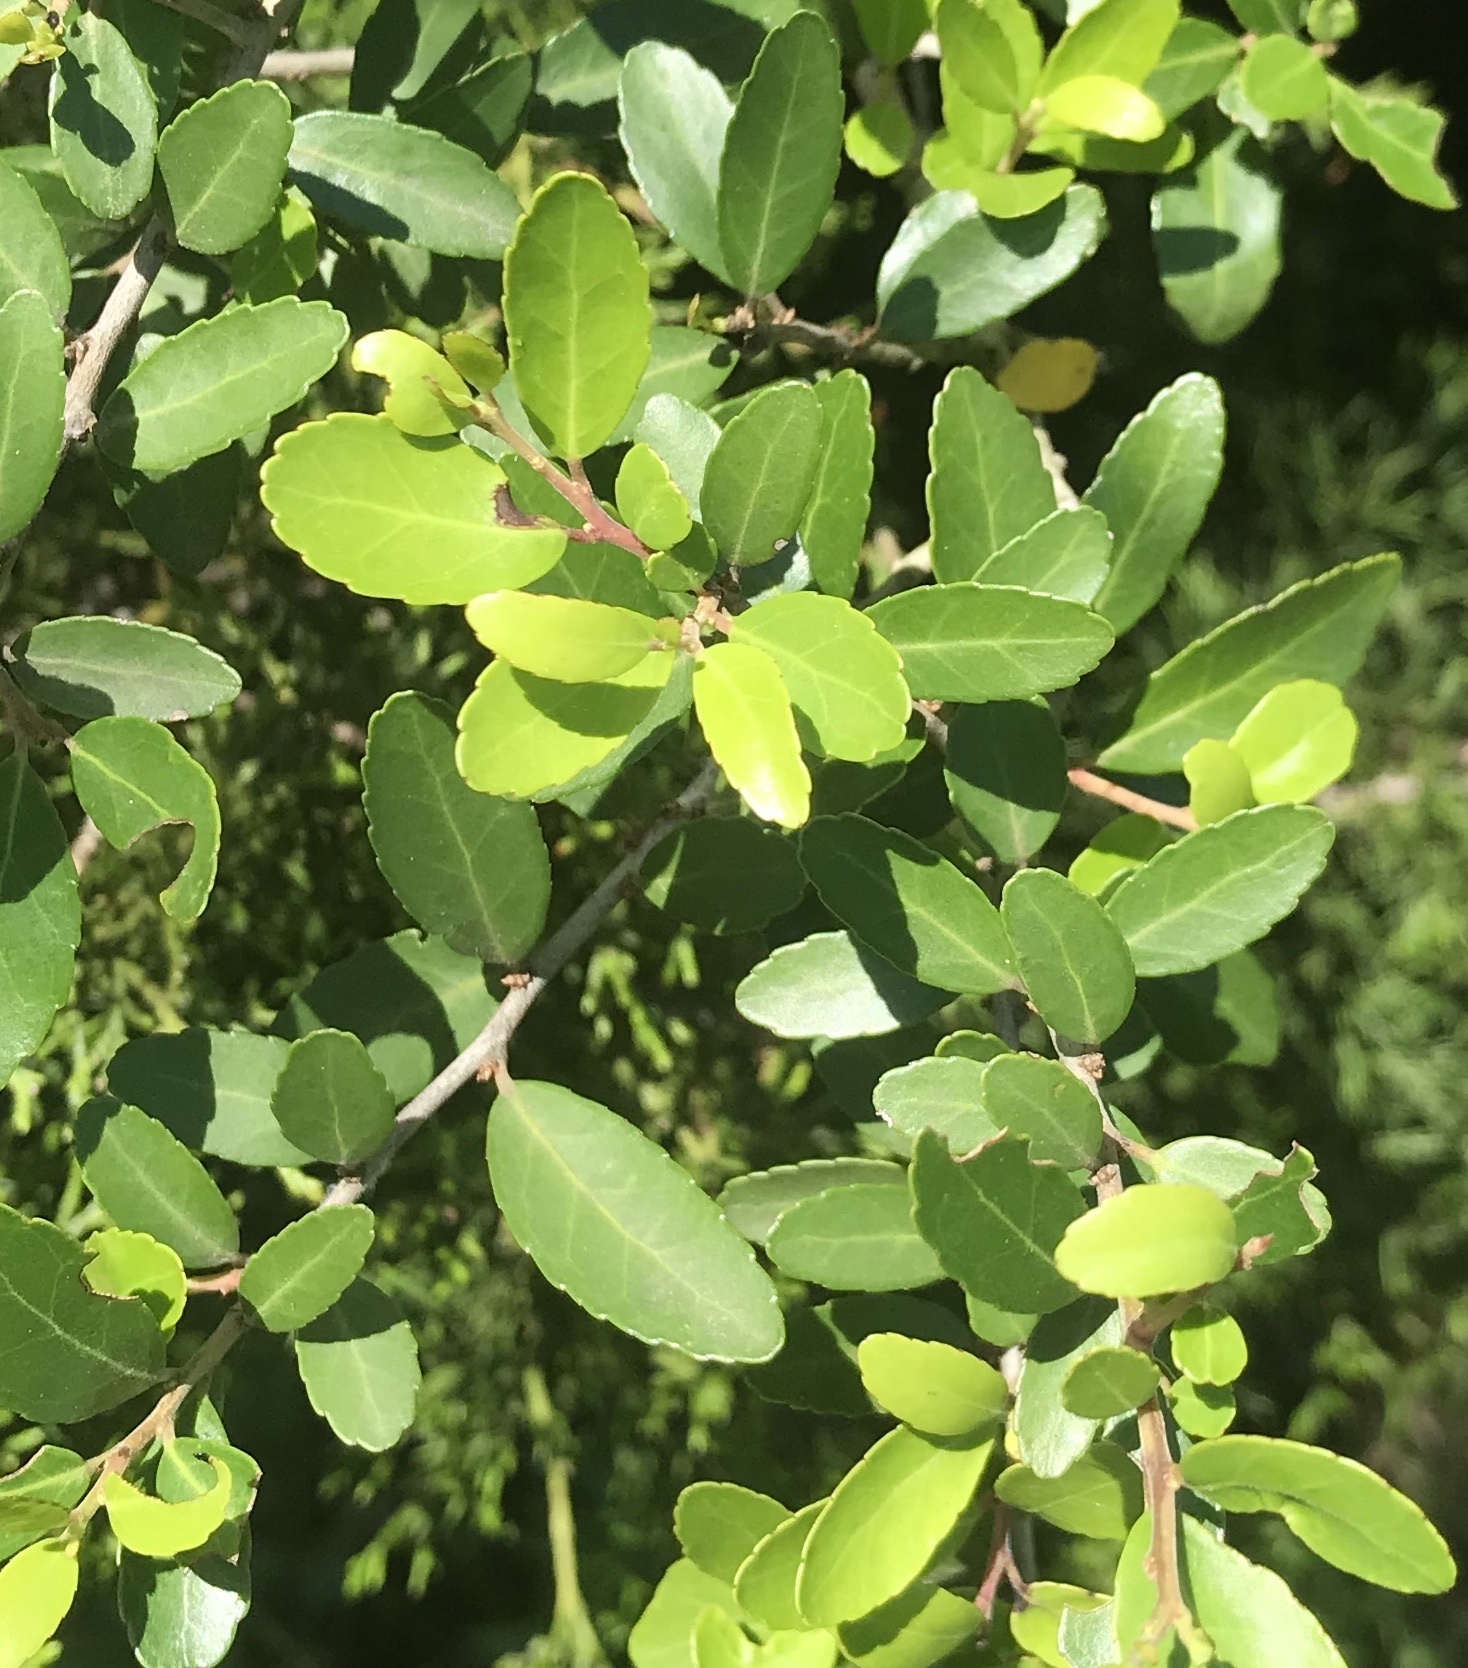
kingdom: Plantae
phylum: Tracheophyta
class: Magnoliopsida
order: Aquifoliales
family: Aquifoliaceae
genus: Ilex
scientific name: Ilex vomitoria
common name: Yaupon holly
